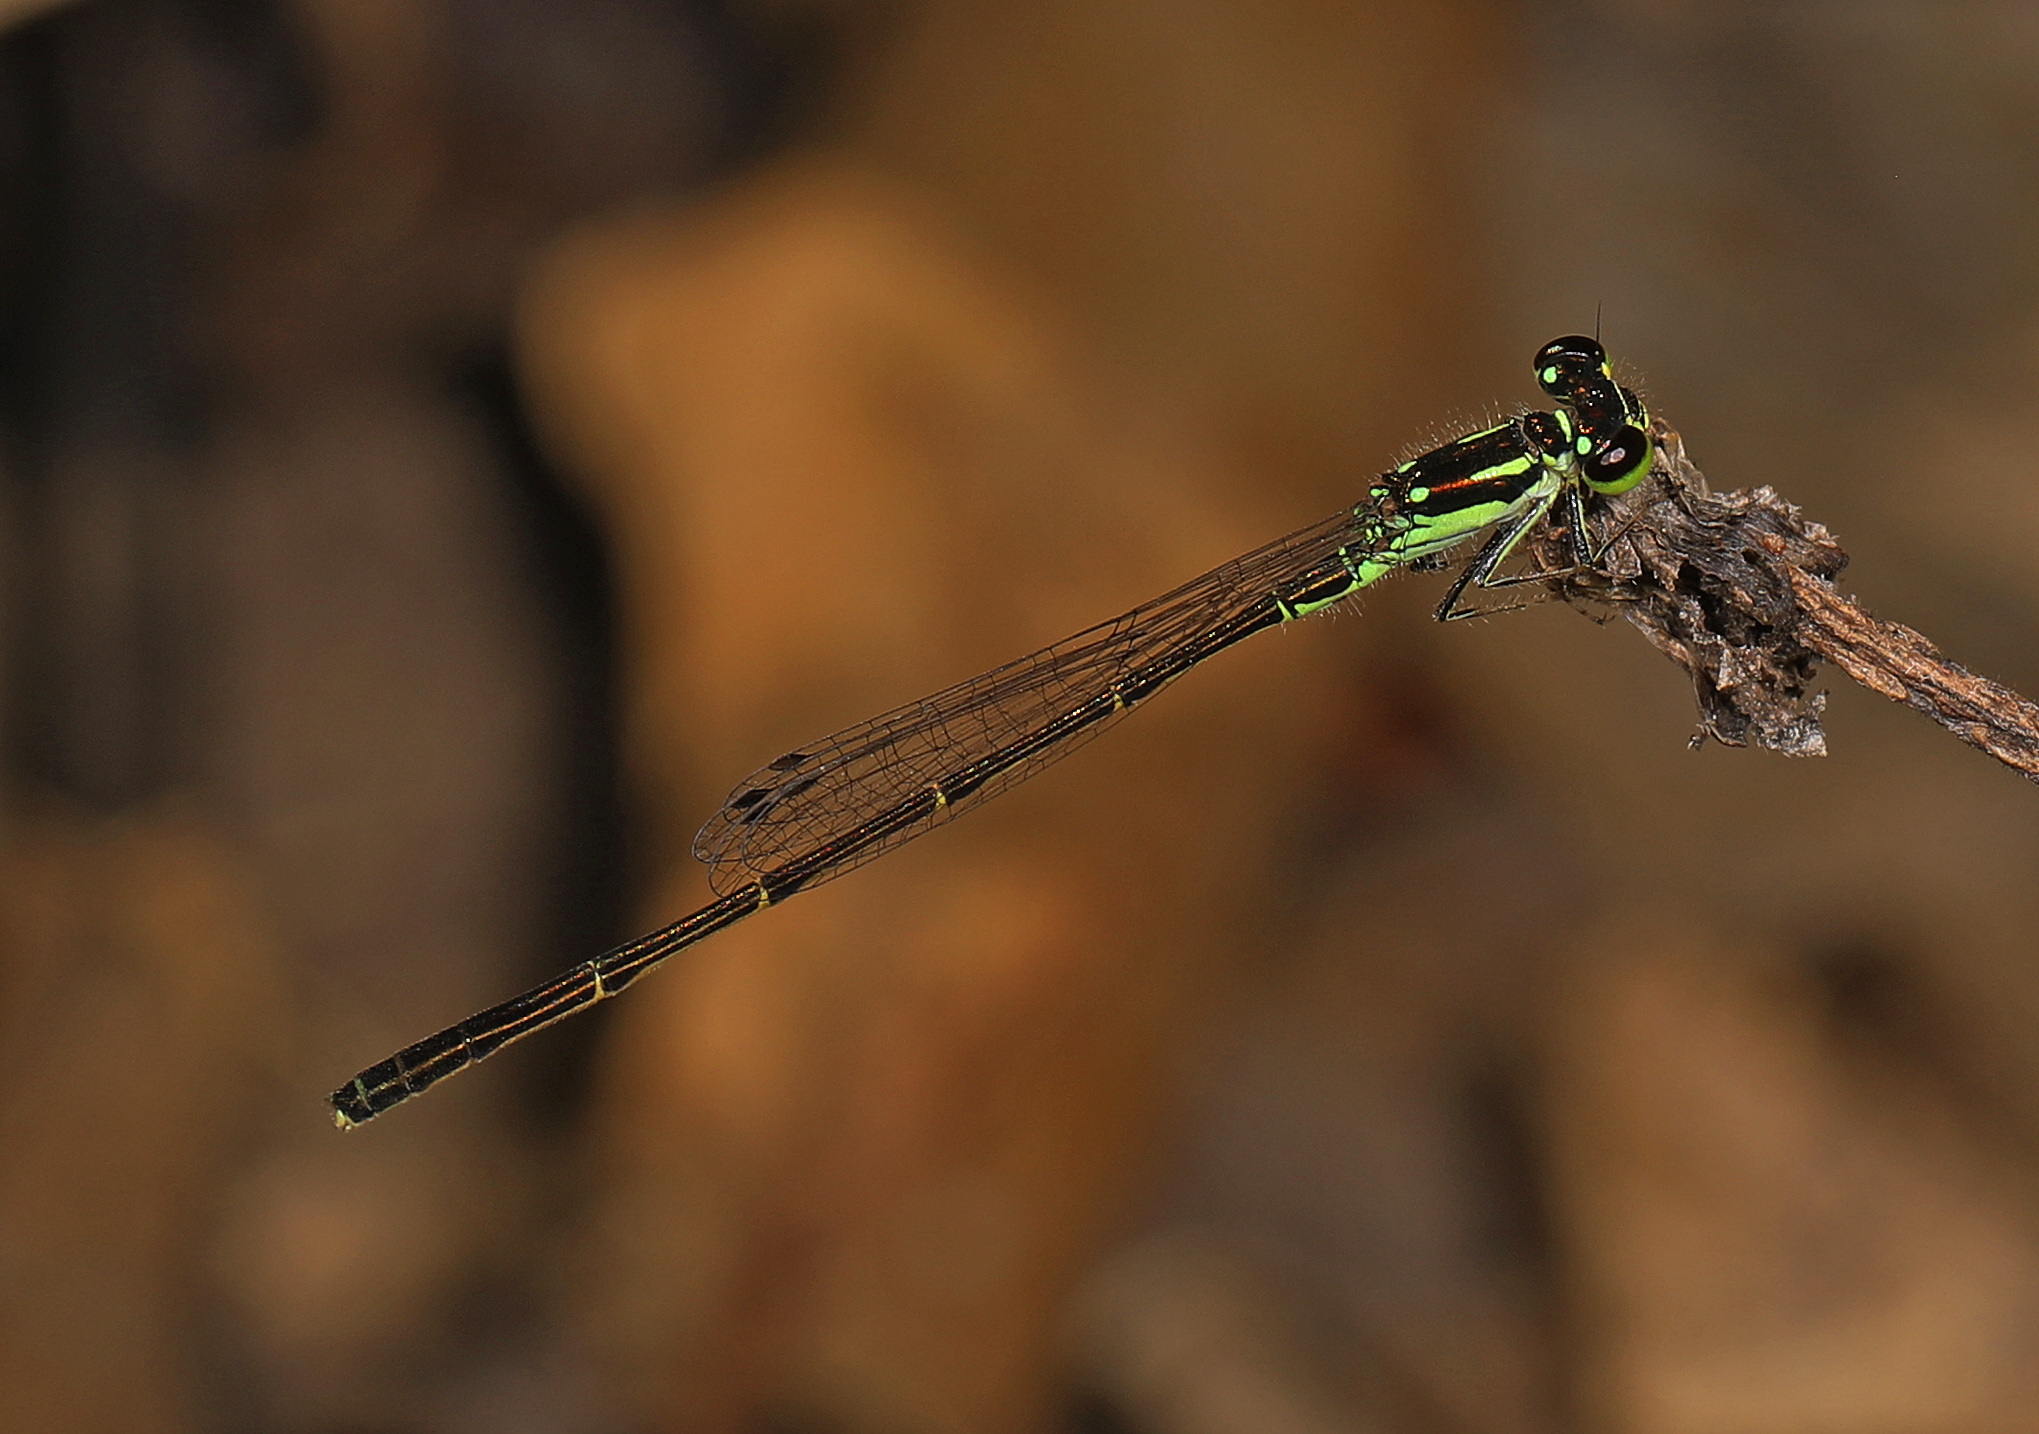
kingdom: Animalia
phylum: Arthropoda
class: Insecta
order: Odonata
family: Coenagrionidae
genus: Ischnura
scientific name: Ischnura posita
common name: Fragile forktail
